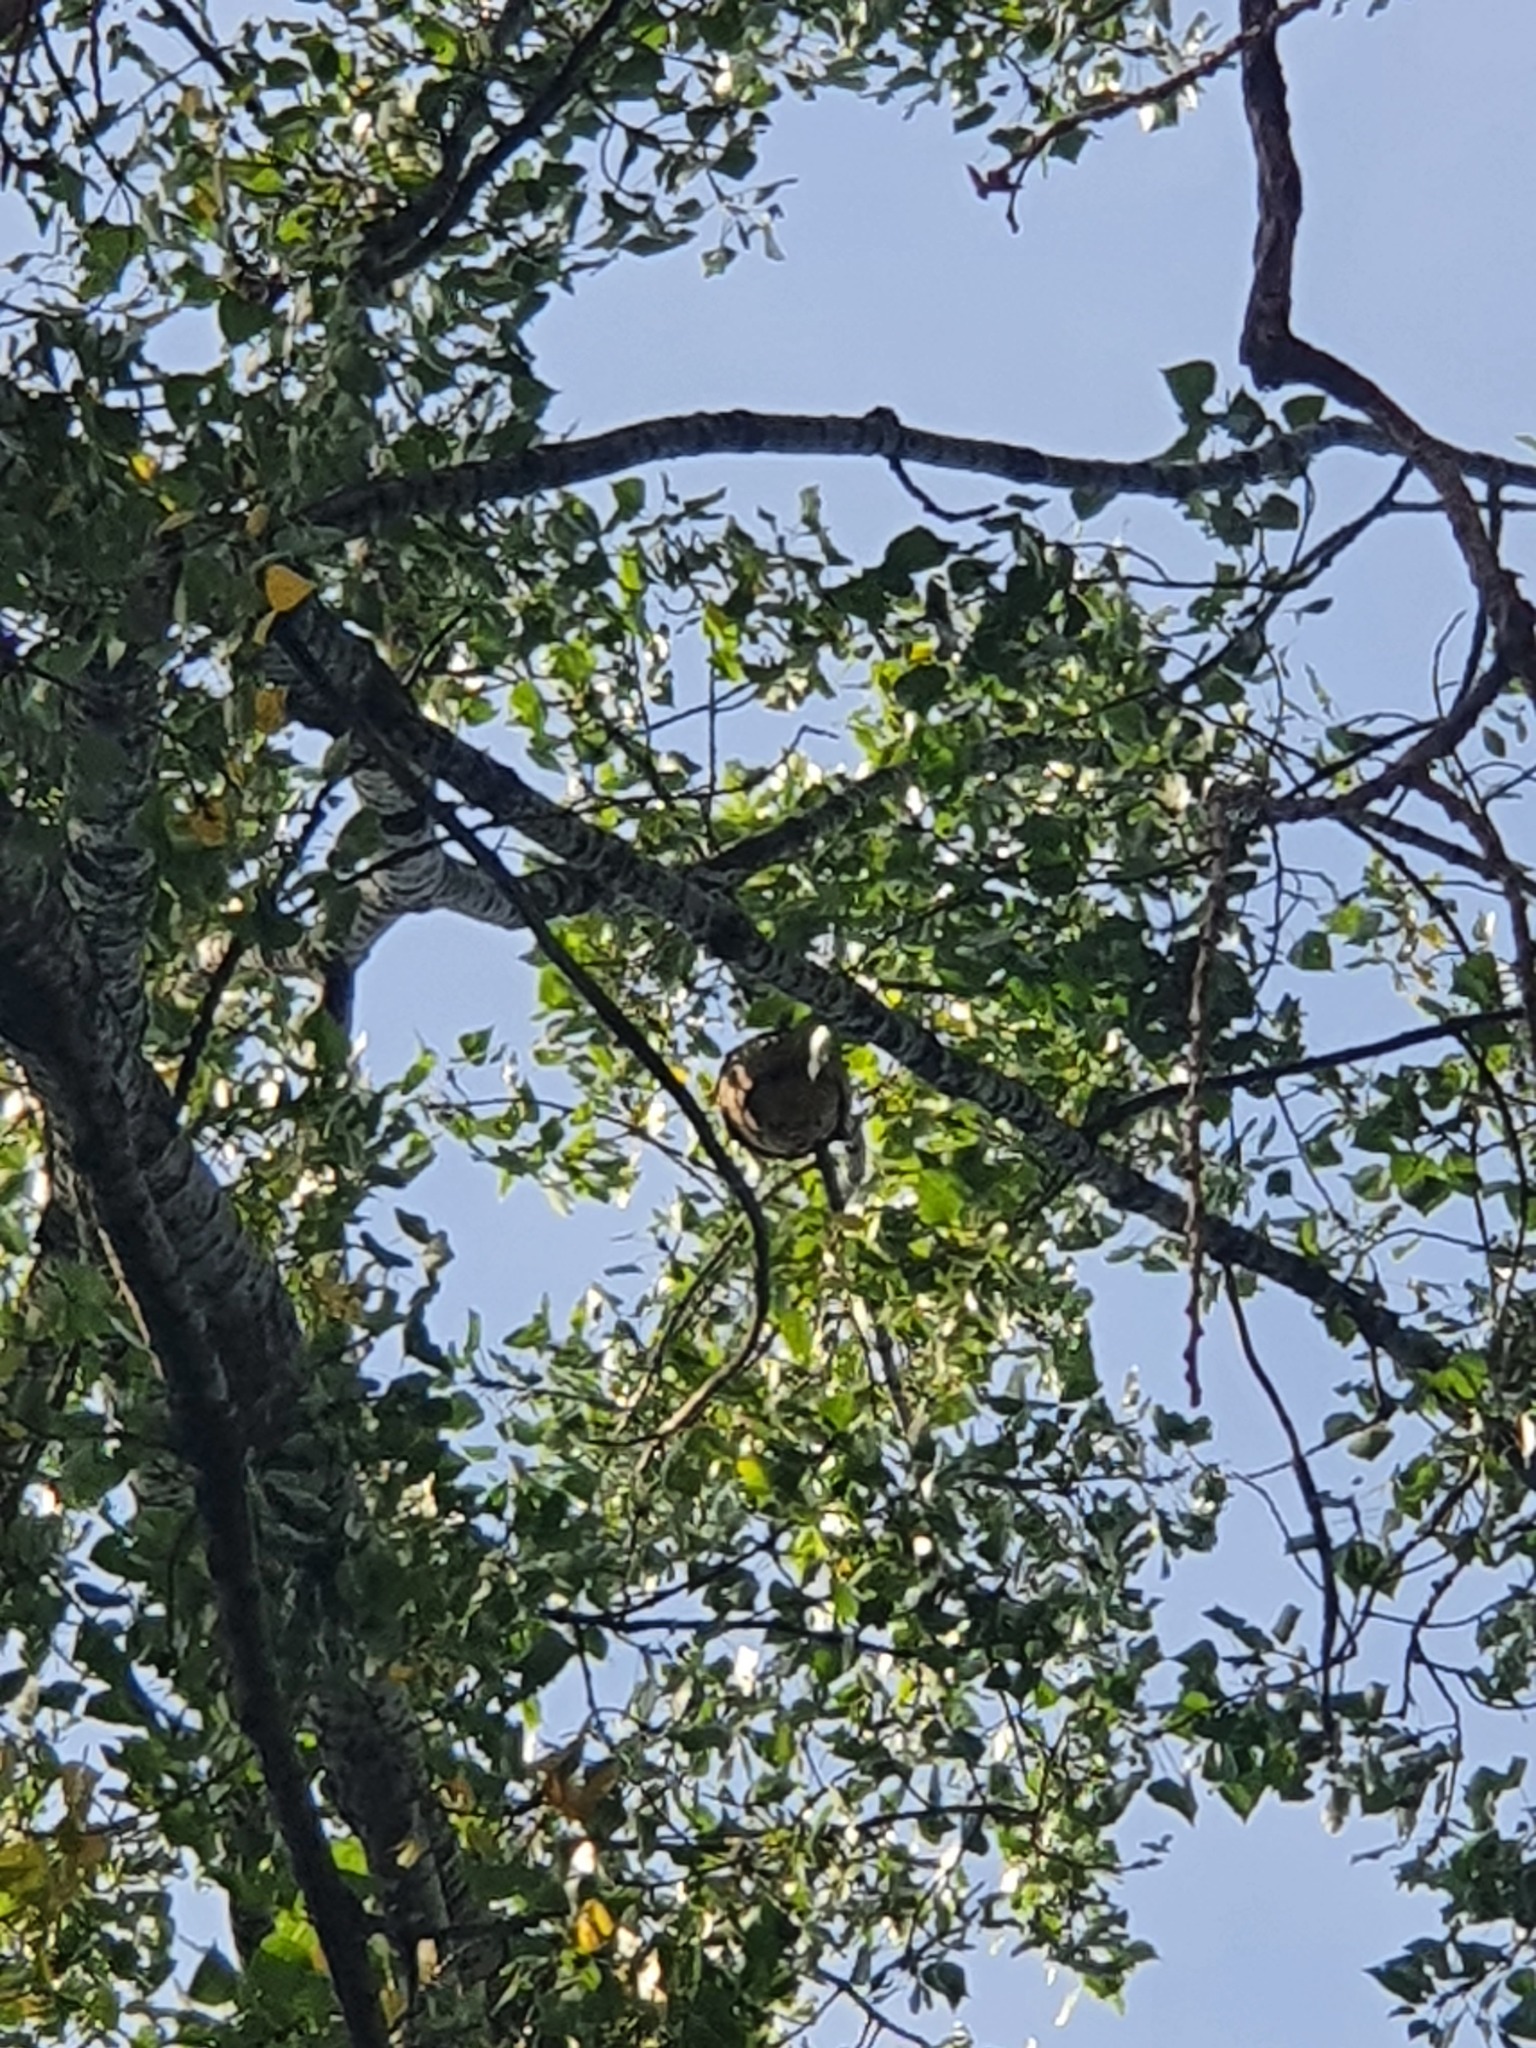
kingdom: Animalia
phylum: Arthropoda
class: Insecta
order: Hymenoptera
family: Vespidae
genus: Vespa
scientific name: Vespa velutina
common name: Asian hornet
